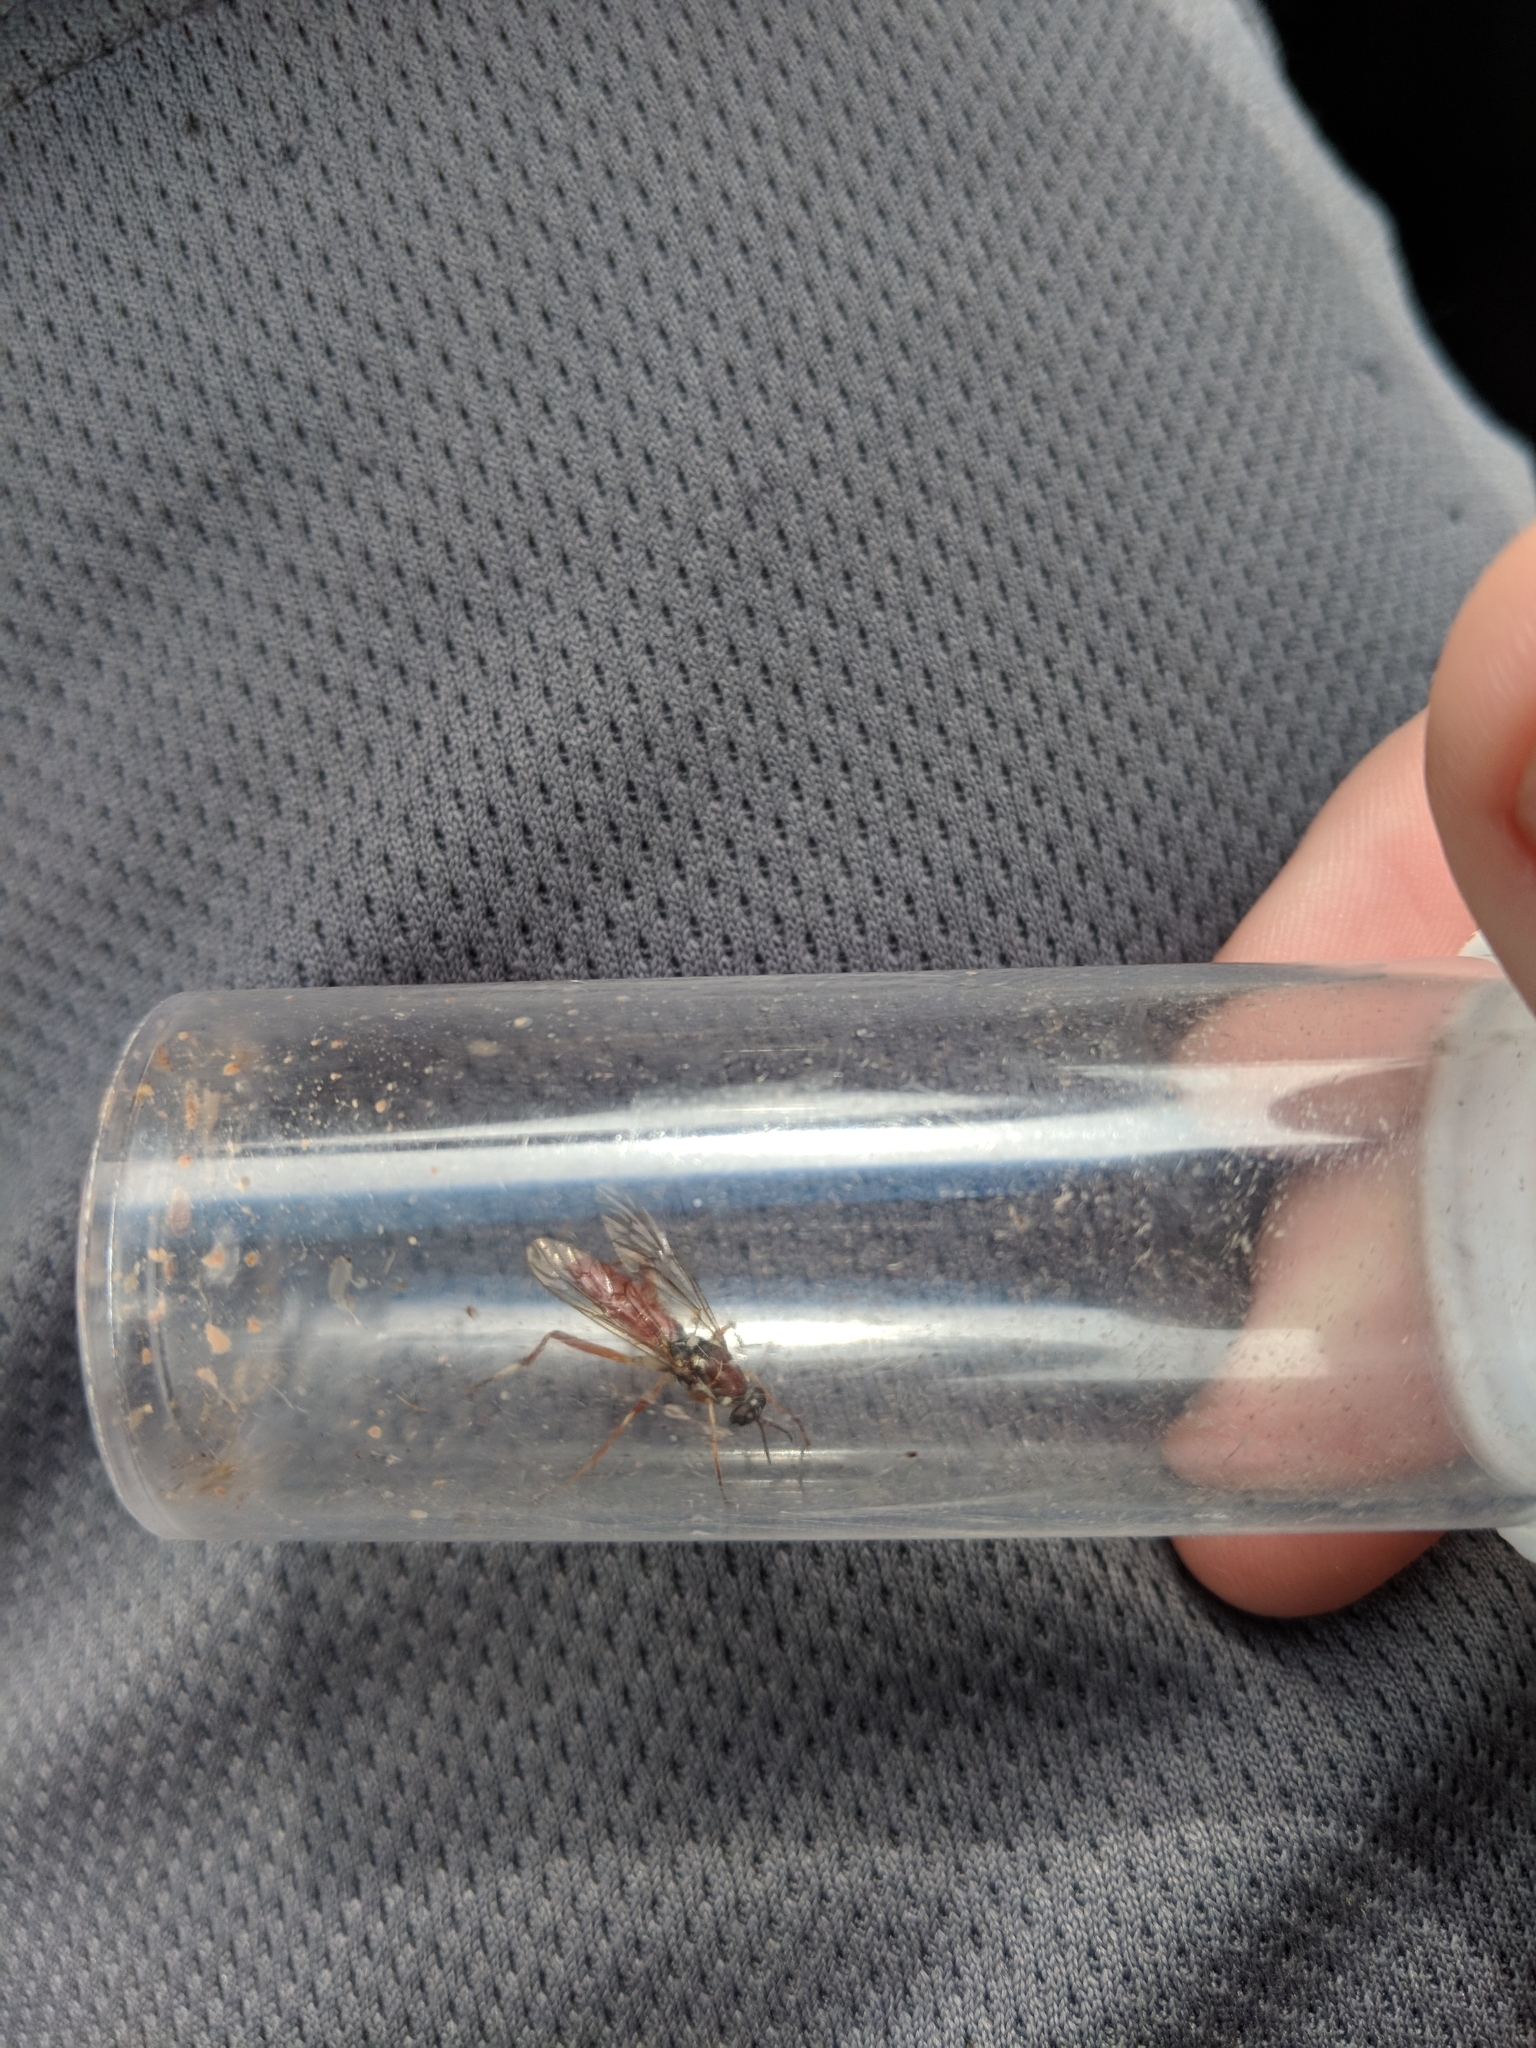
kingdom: Animalia
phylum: Arthropoda
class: Insecta
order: Diptera
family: Xylomyidae
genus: Xylomya
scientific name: Xylomya pallidifemur
